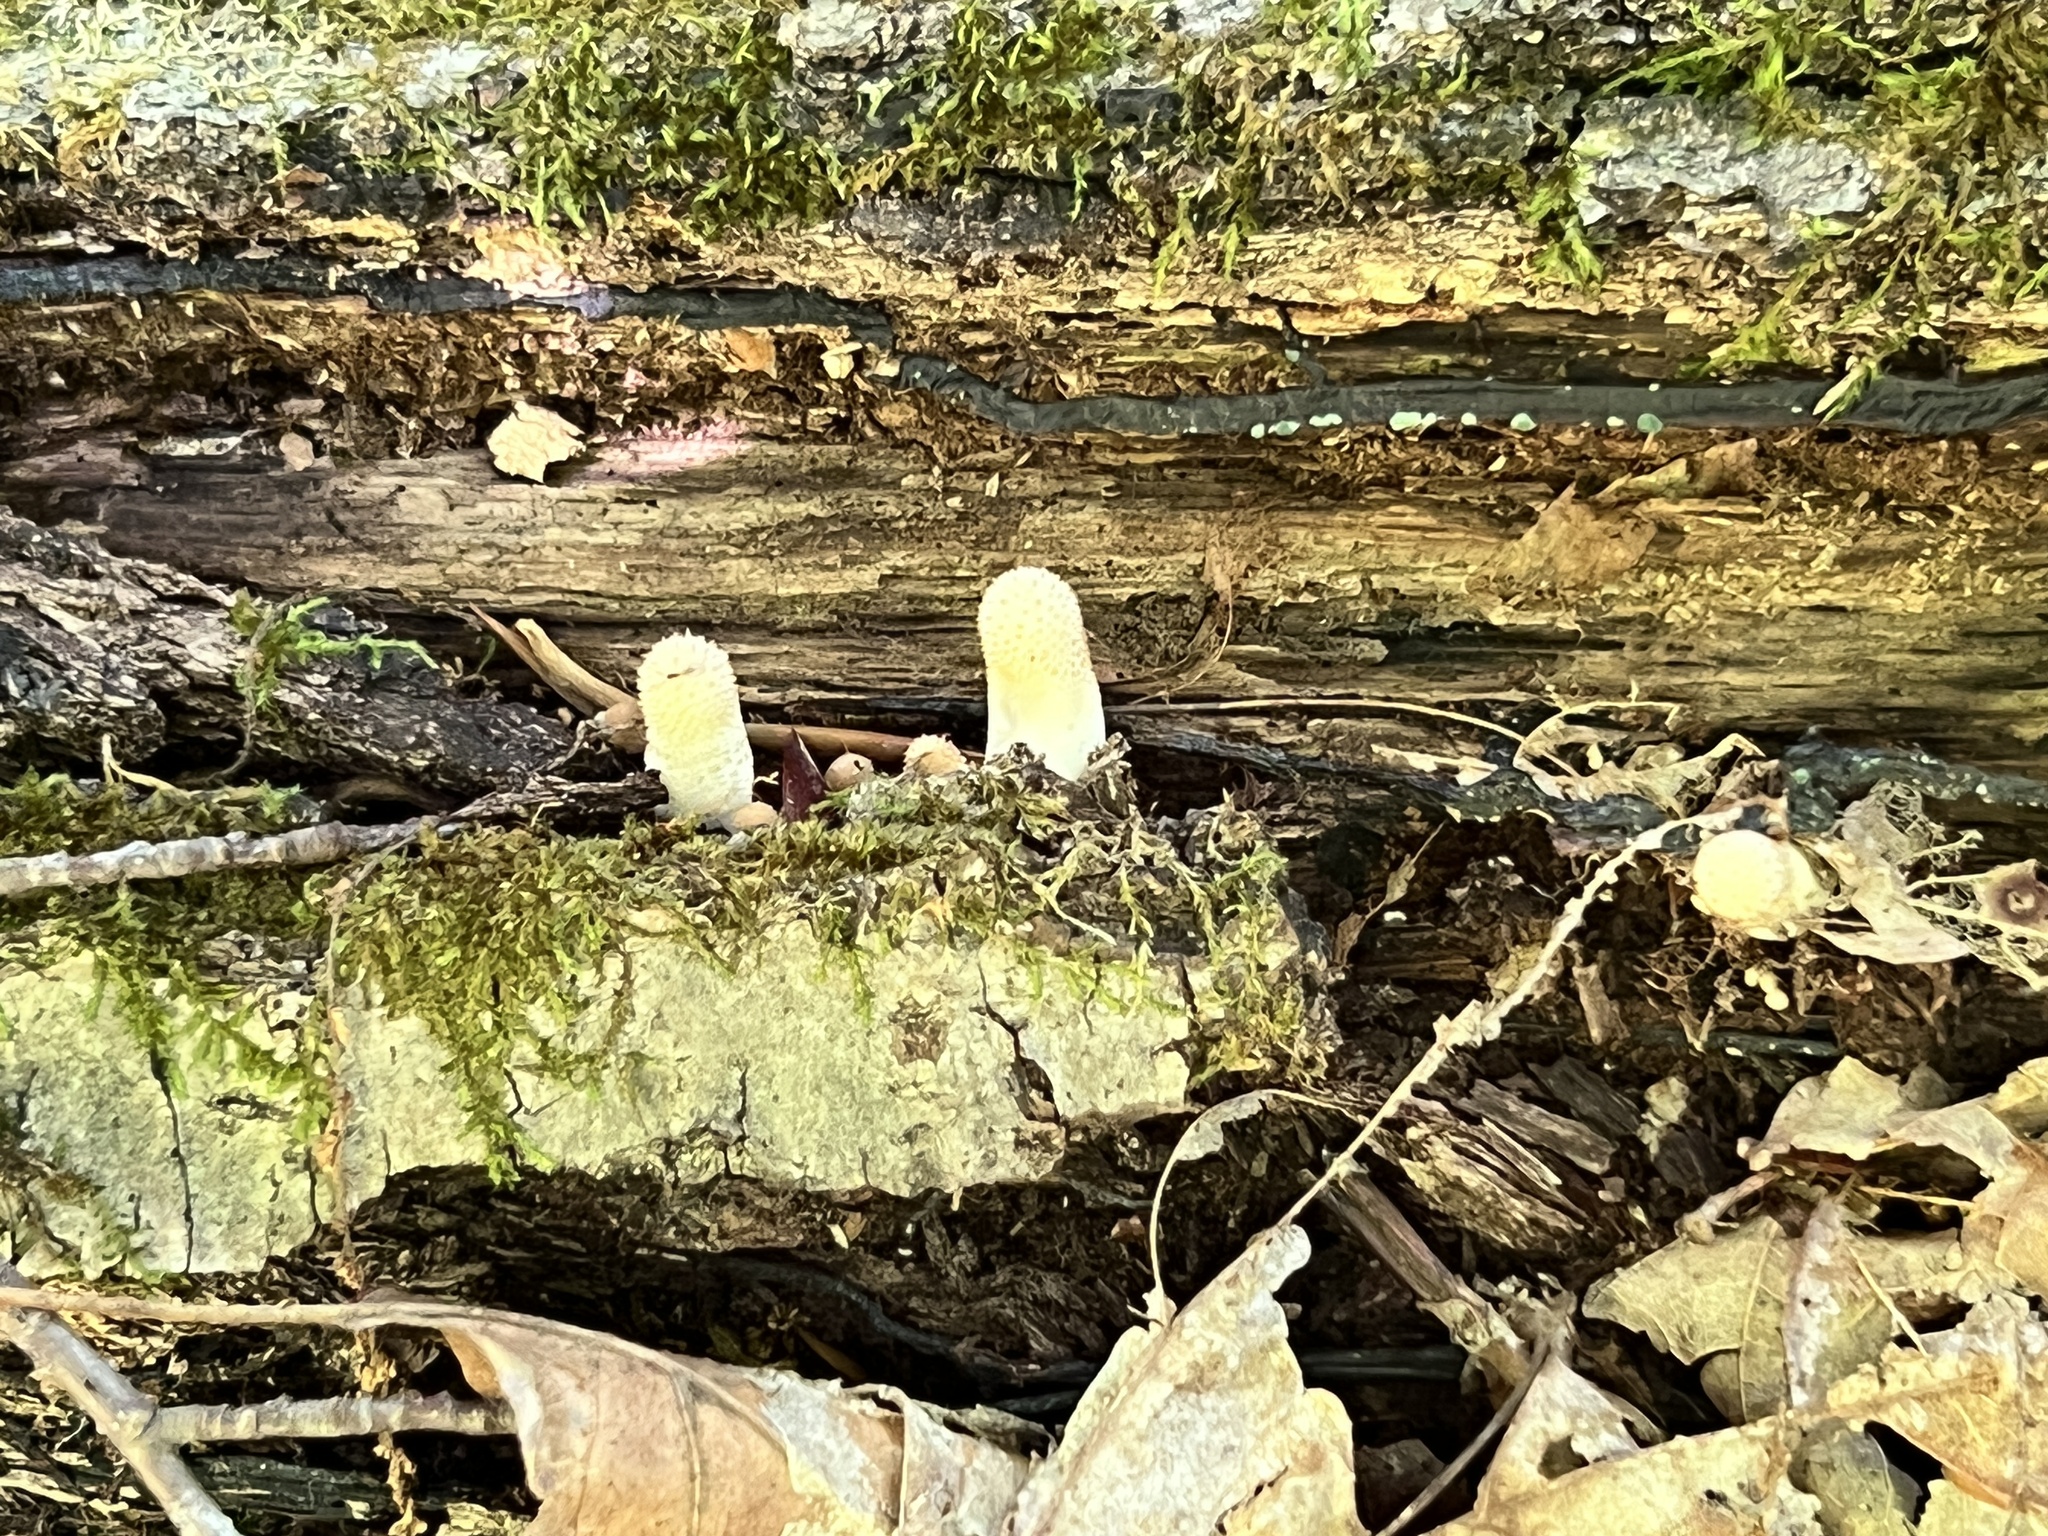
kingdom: Fungi
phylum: Basidiomycota
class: Agaricomycetes
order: Agaricales
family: Lycoperdaceae
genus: Lycoperdon
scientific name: Lycoperdon perlatum
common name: Common puffball
